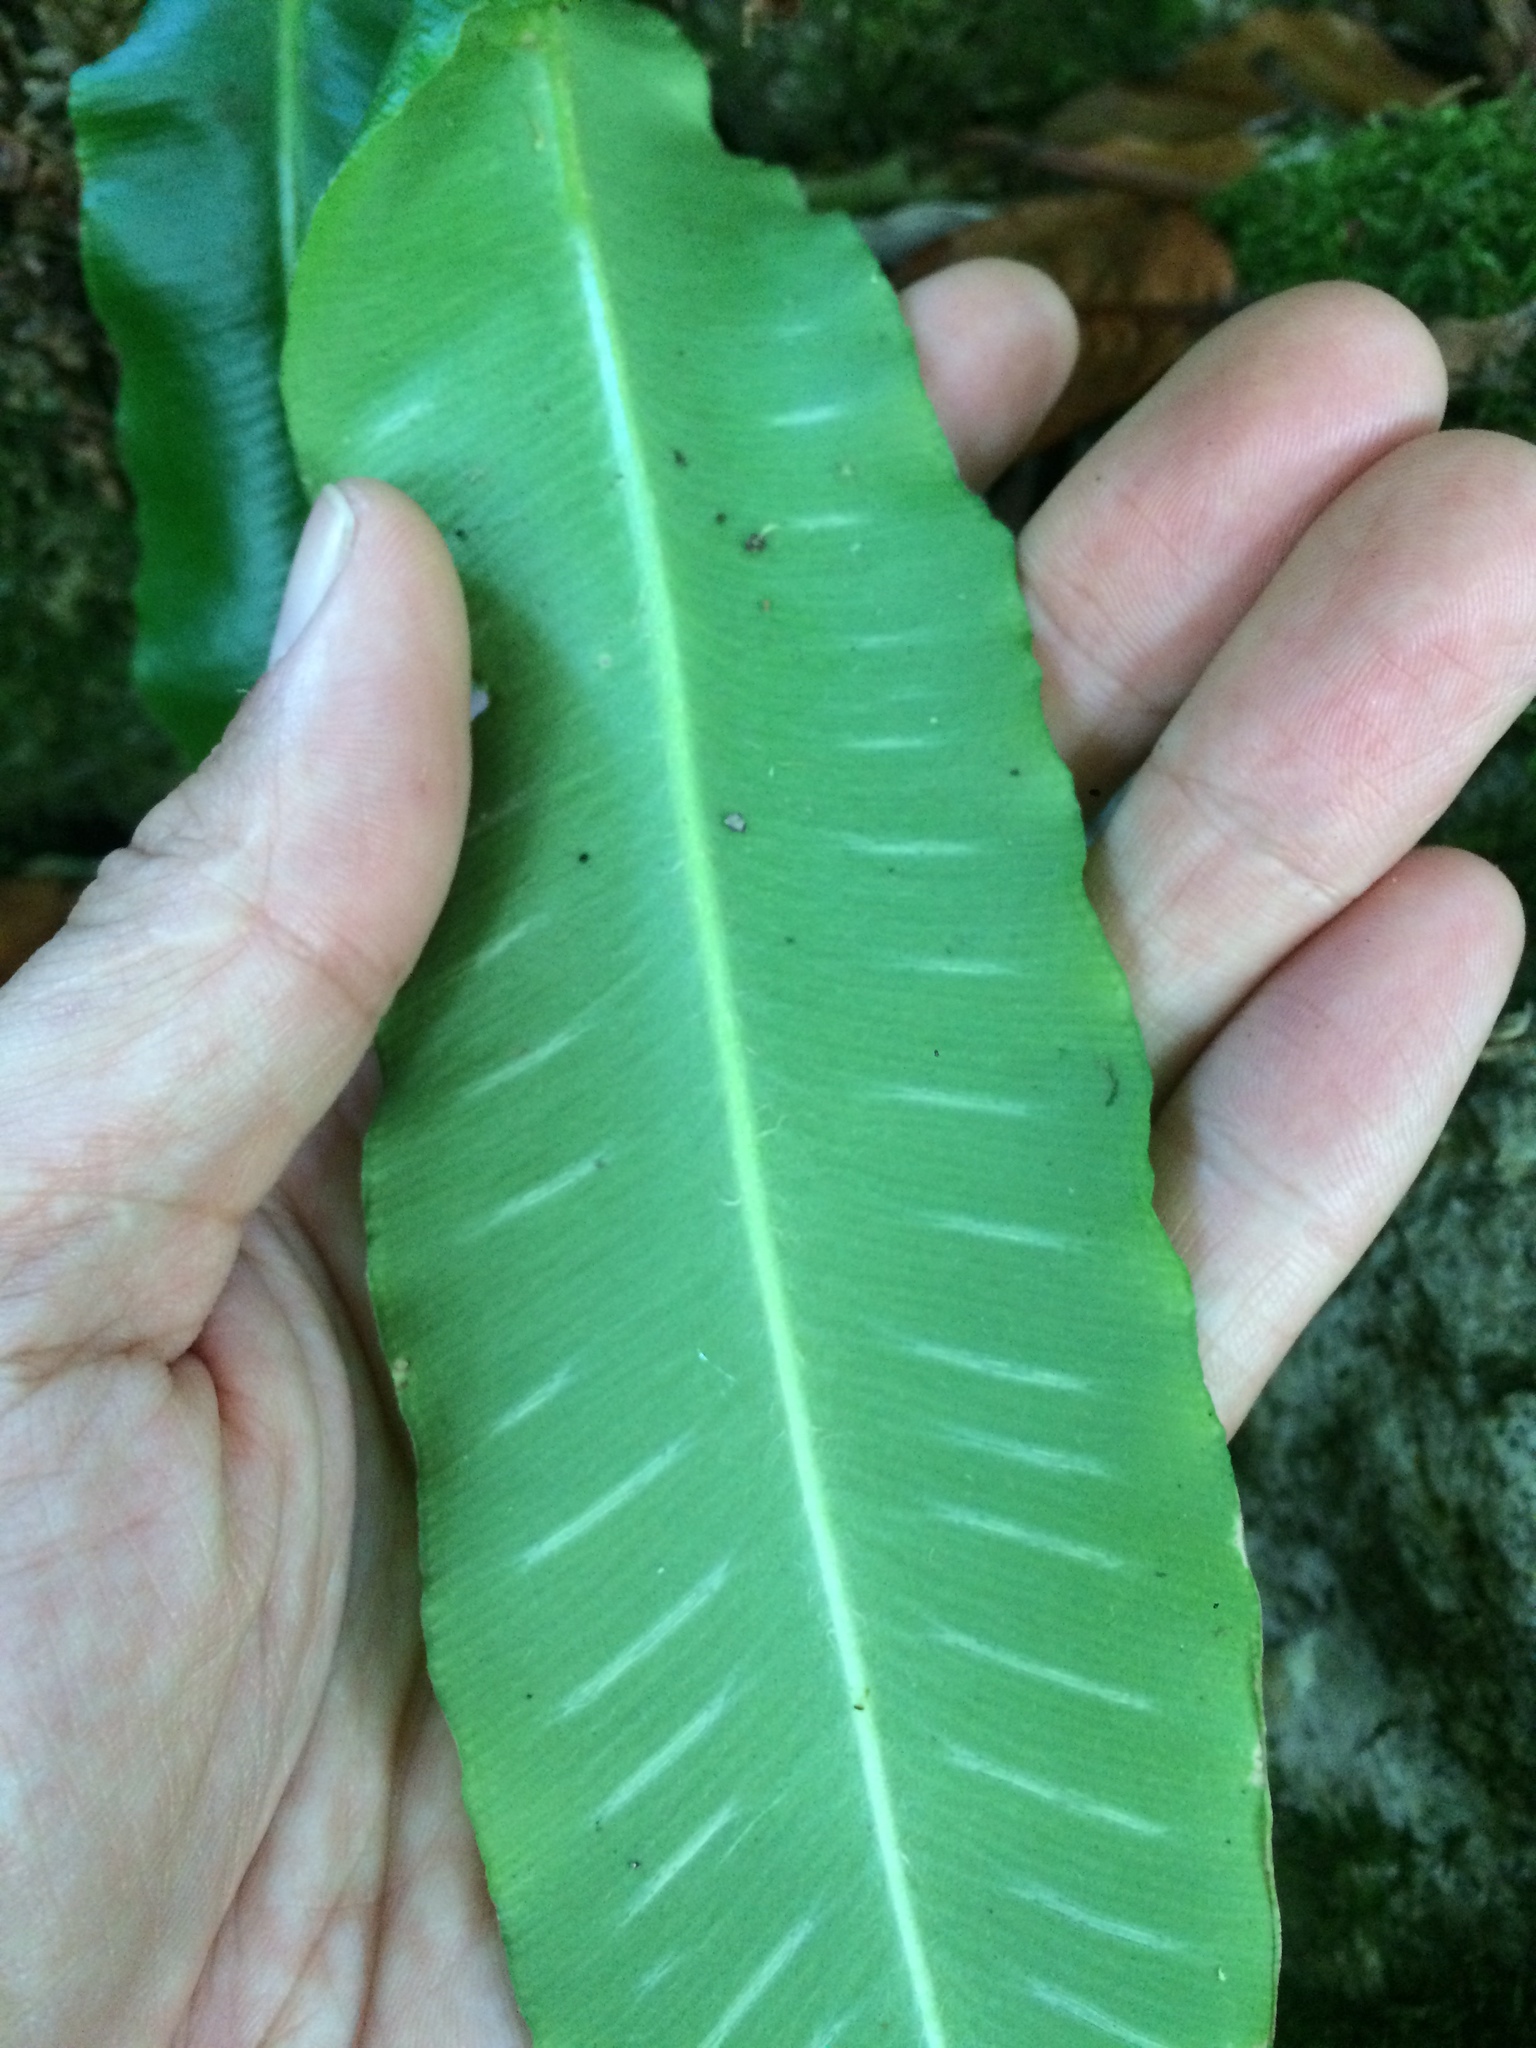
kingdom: Plantae
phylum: Tracheophyta
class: Polypodiopsida
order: Polypodiales
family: Aspleniaceae
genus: Asplenium
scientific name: Asplenium scolopendrium
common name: Hart's-tongue fern
